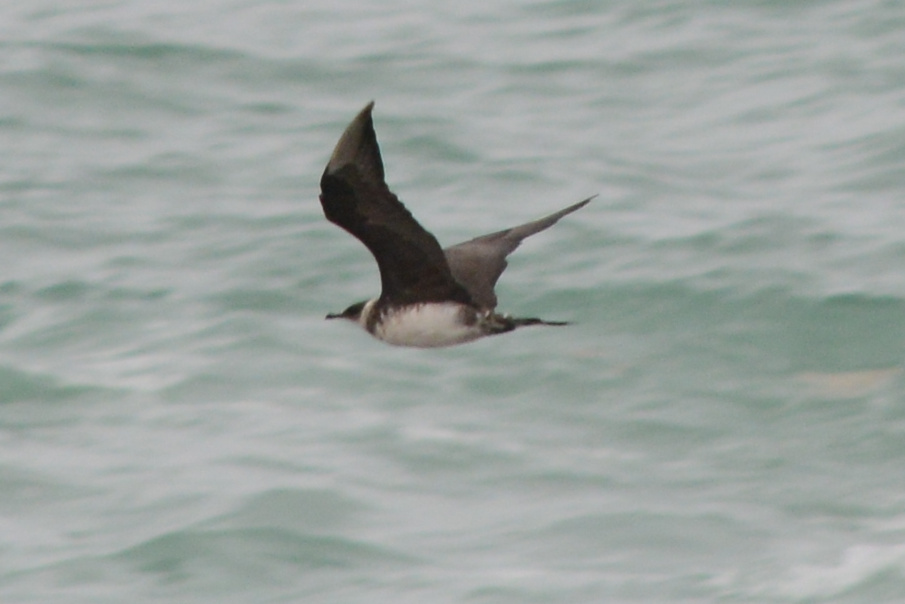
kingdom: Animalia
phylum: Chordata
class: Aves
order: Charadriiformes
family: Stercorariidae
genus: Stercorarius
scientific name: Stercorarius parasiticus
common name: Parasitic jaeger
